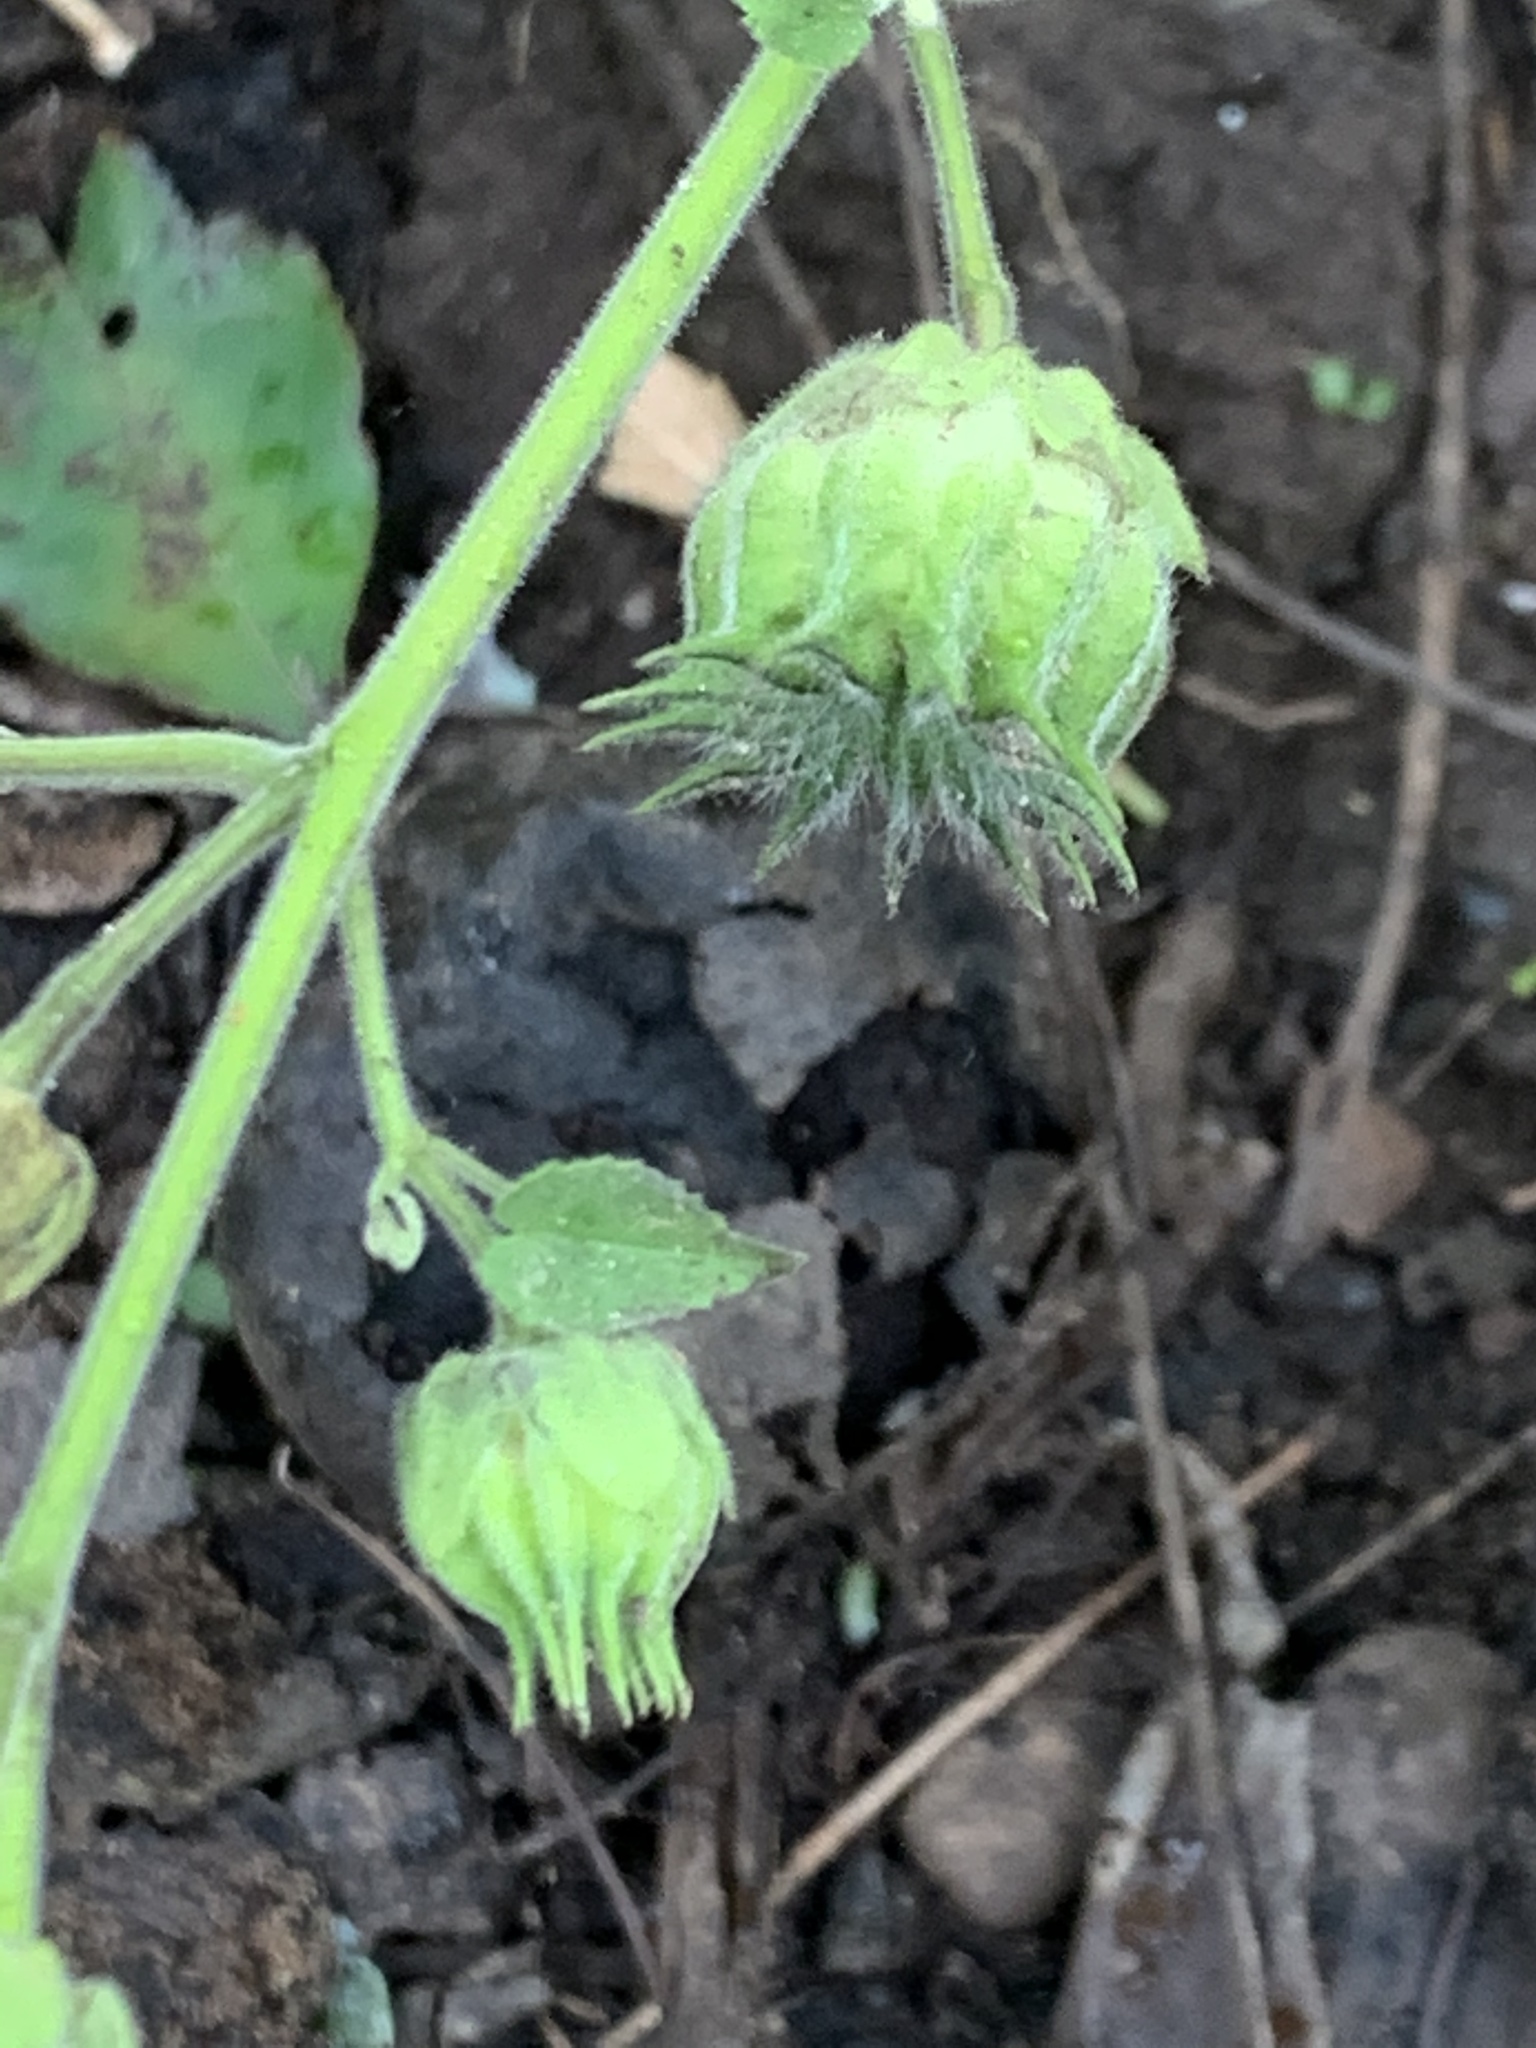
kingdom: Plantae
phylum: Tracheophyta
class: Magnoliopsida
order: Malvales
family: Malvaceae
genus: Abutilon
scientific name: Abutilon theophrasti
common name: Velvetleaf
